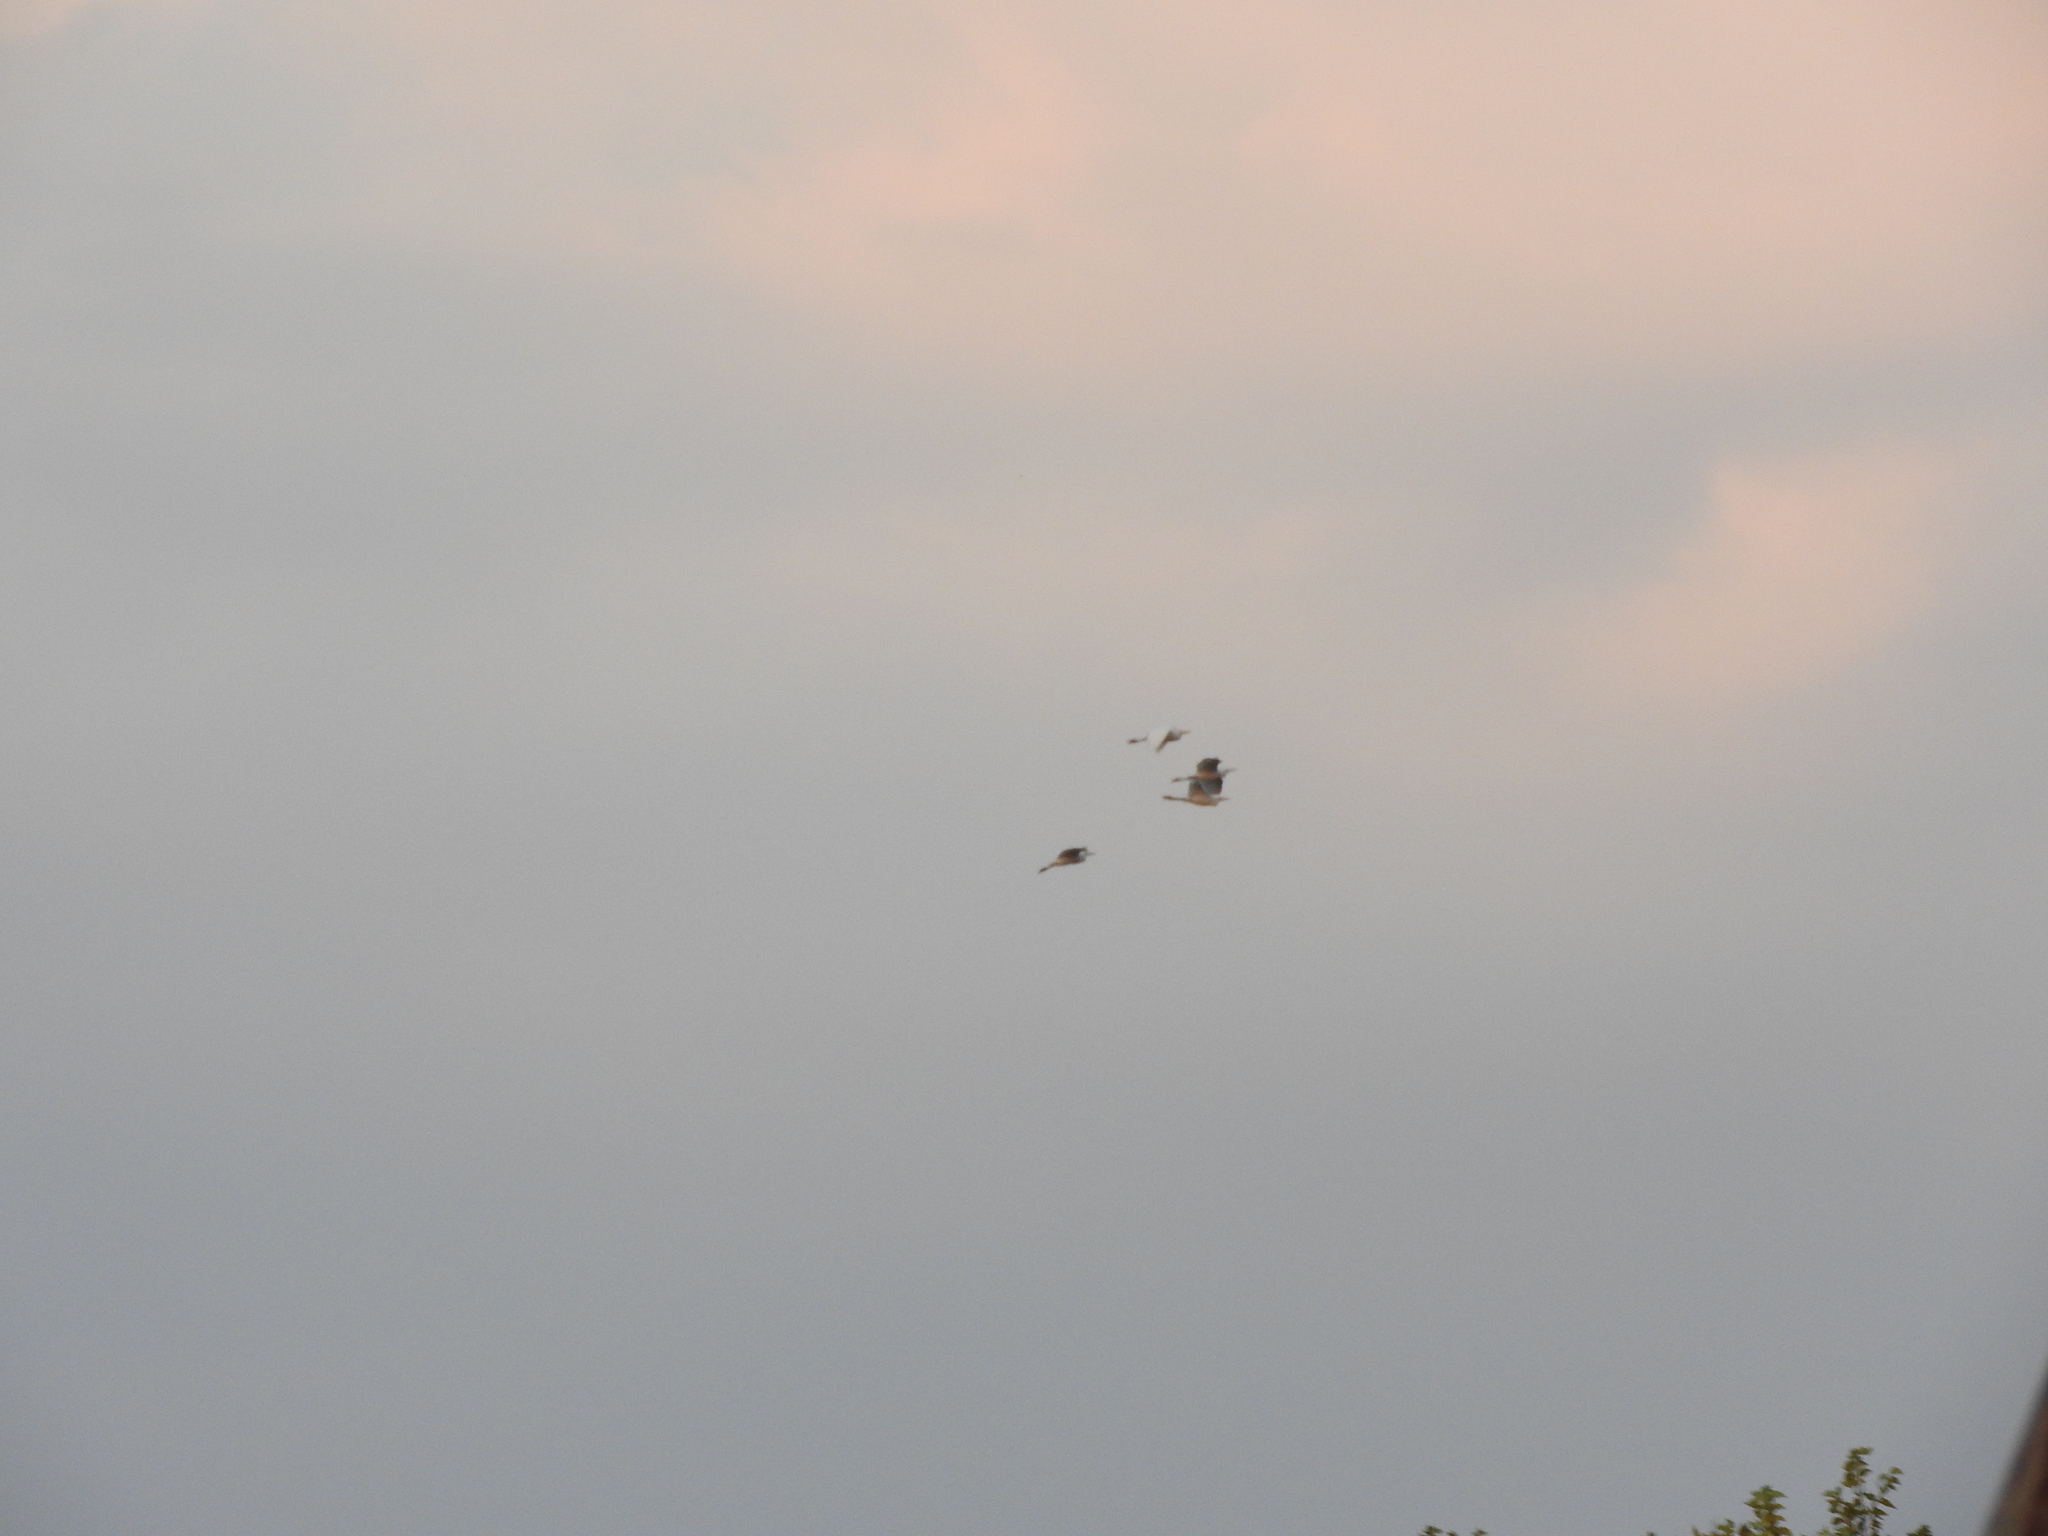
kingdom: Animalia
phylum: Chordata
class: Aves
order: Pelecaniformes
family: Ardeidae
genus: Bubulcus
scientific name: Bubulcus ibis
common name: Cattle egret
